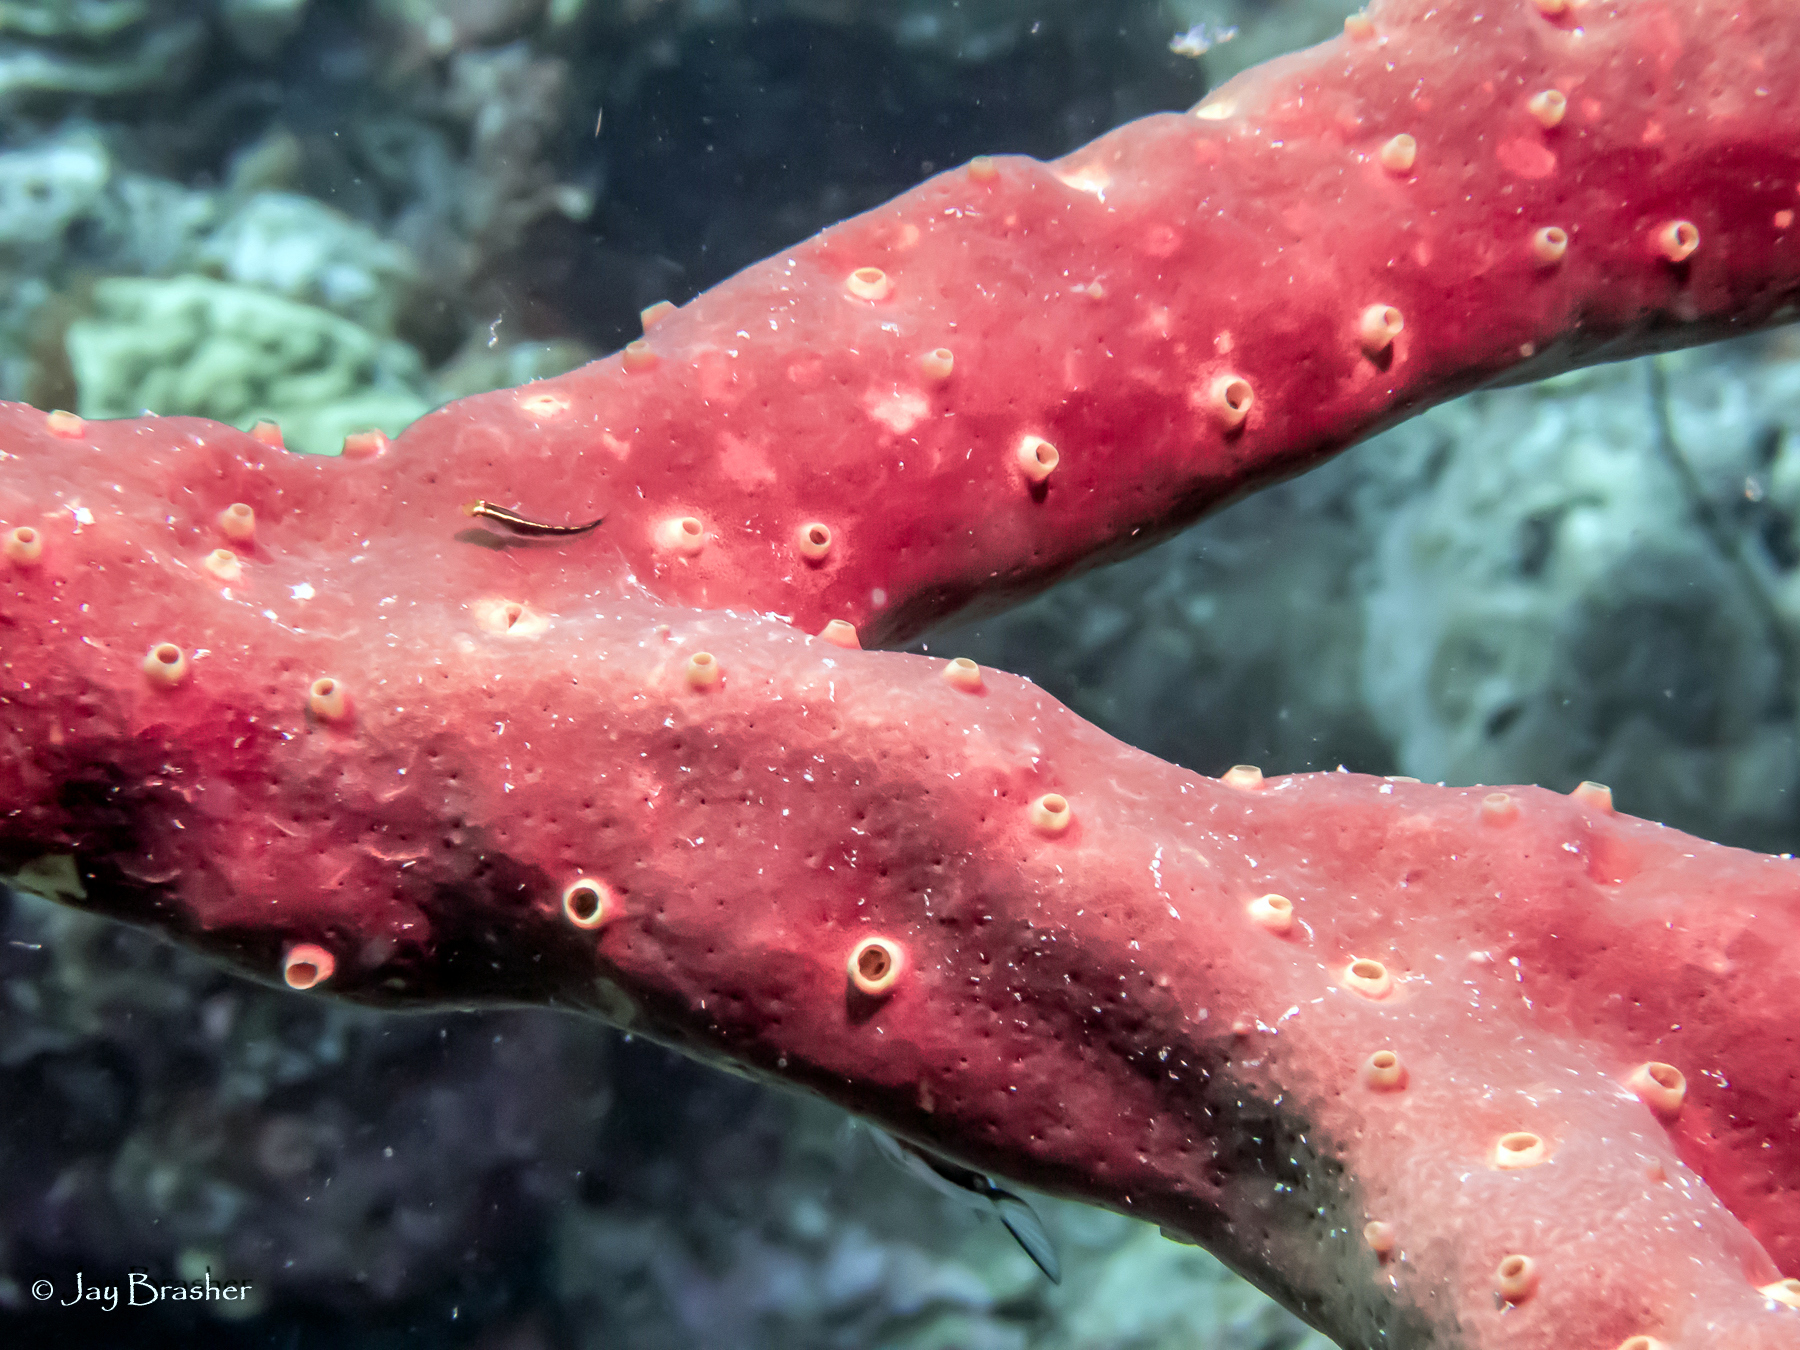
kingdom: Animalia
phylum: Porifera
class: Demospongiae
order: Verongiida
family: Aplysinidae
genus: Aplysina
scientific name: Aplysina cauliformis
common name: Branching candle sponge
